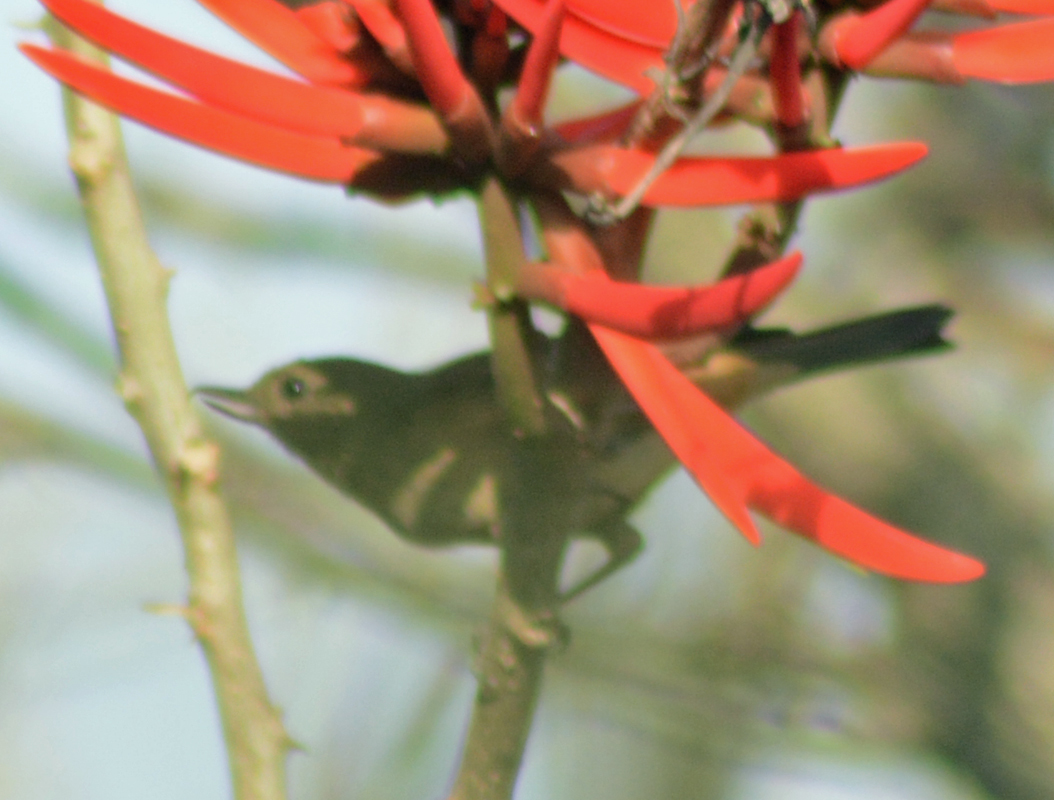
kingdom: Animalia
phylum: Chordata
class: Aves
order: Passeriformes
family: Thraupidae
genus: Diglossa
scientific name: Diglossa baritula
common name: Cinnamon-bellied flowerpiercer
